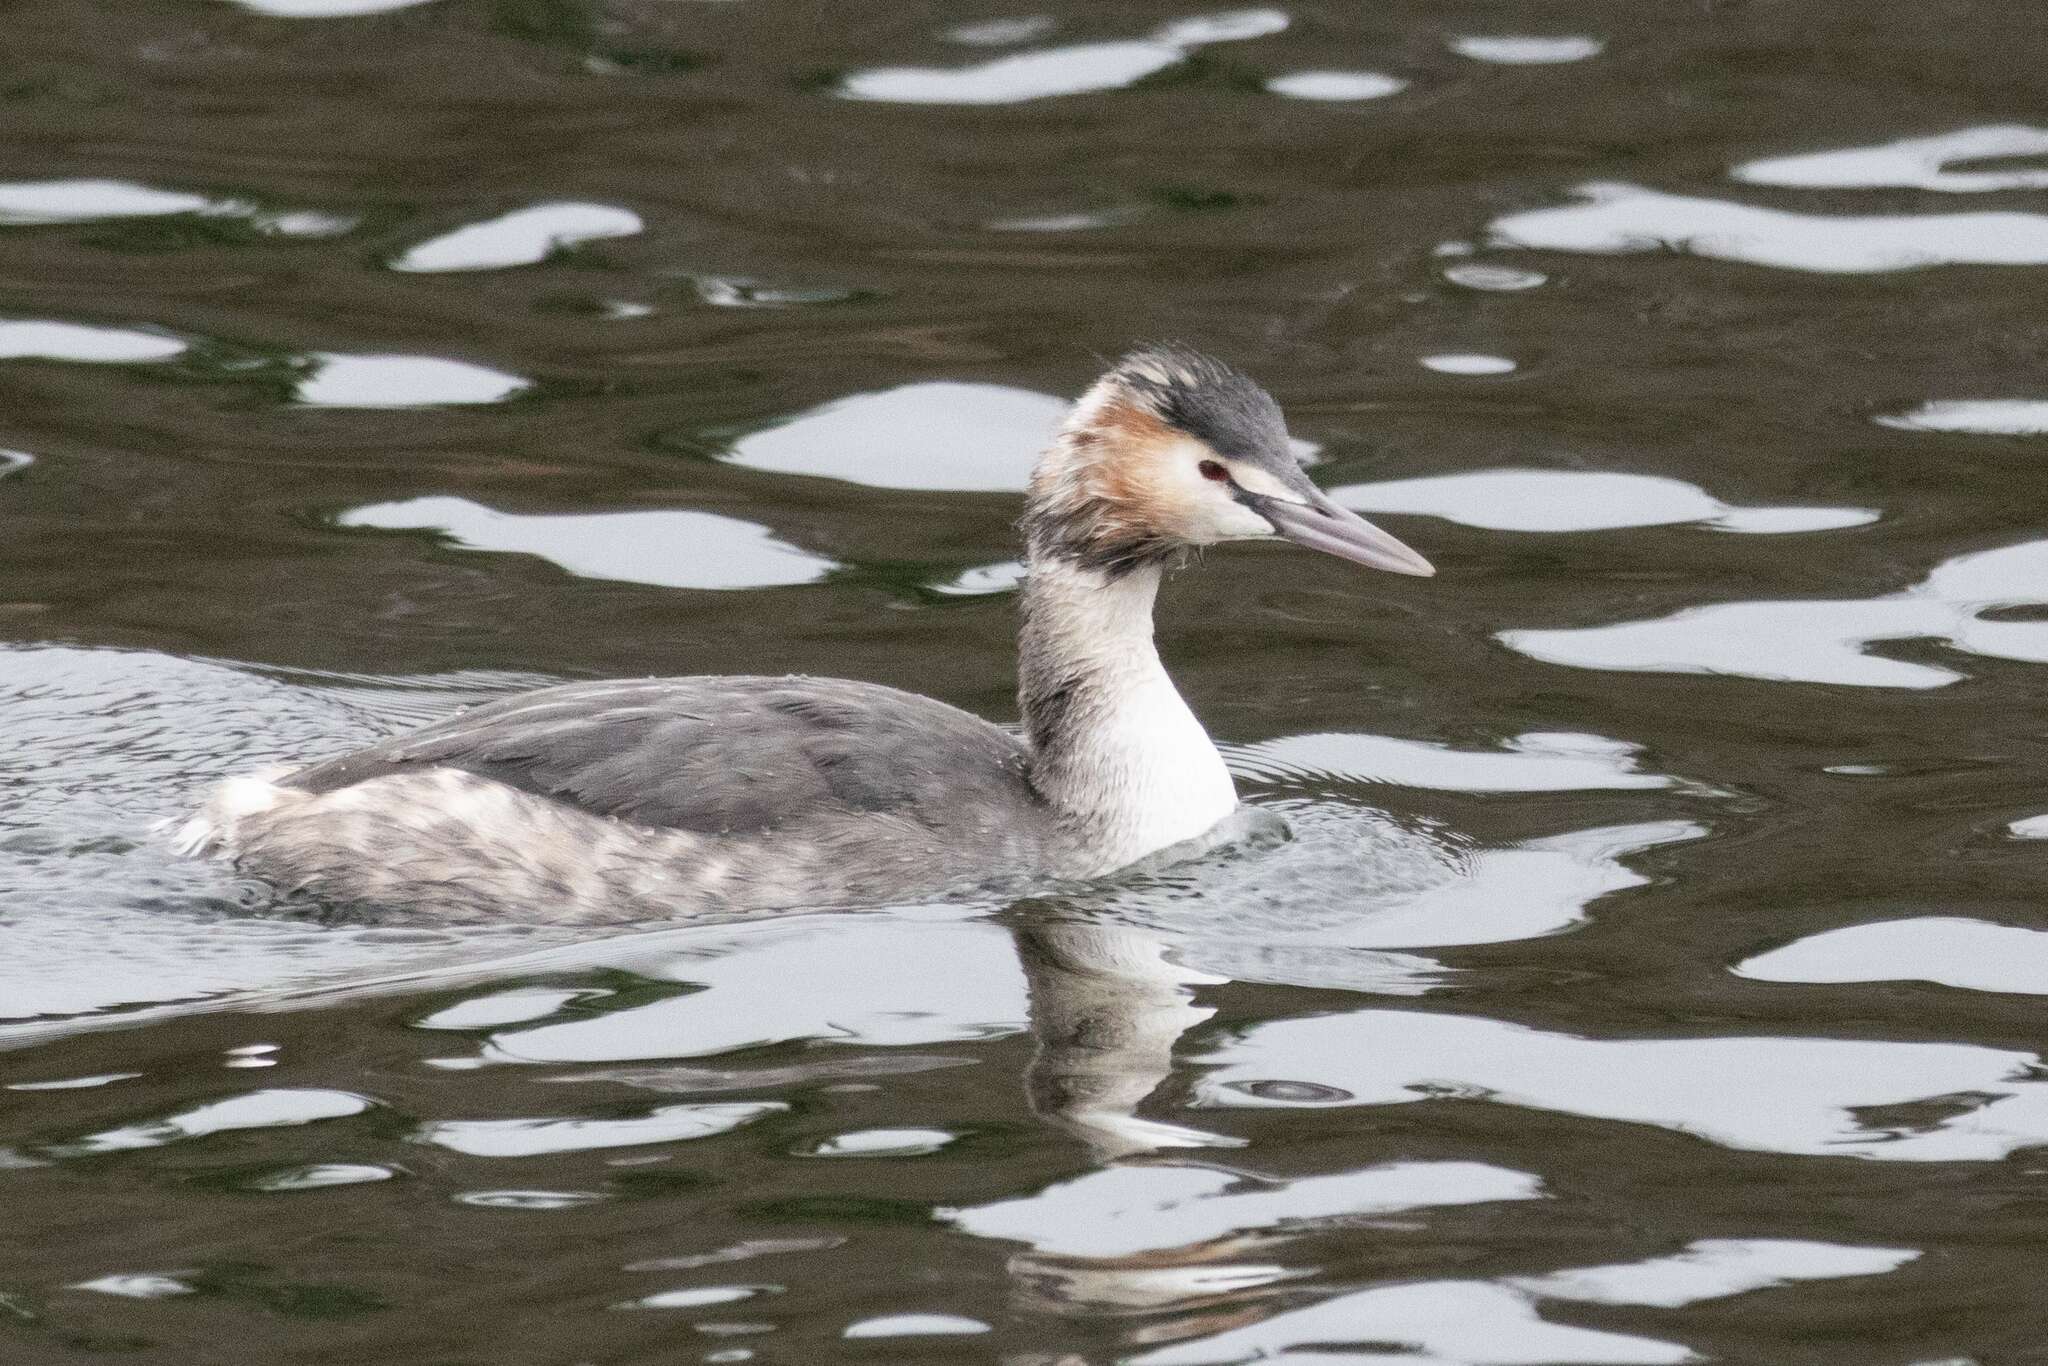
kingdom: Animalia
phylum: Chordata
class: Aves
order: Podicipediformes
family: Podicipedidae
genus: Podiceps
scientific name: Podiceps cristatus
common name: Great crested grebe
